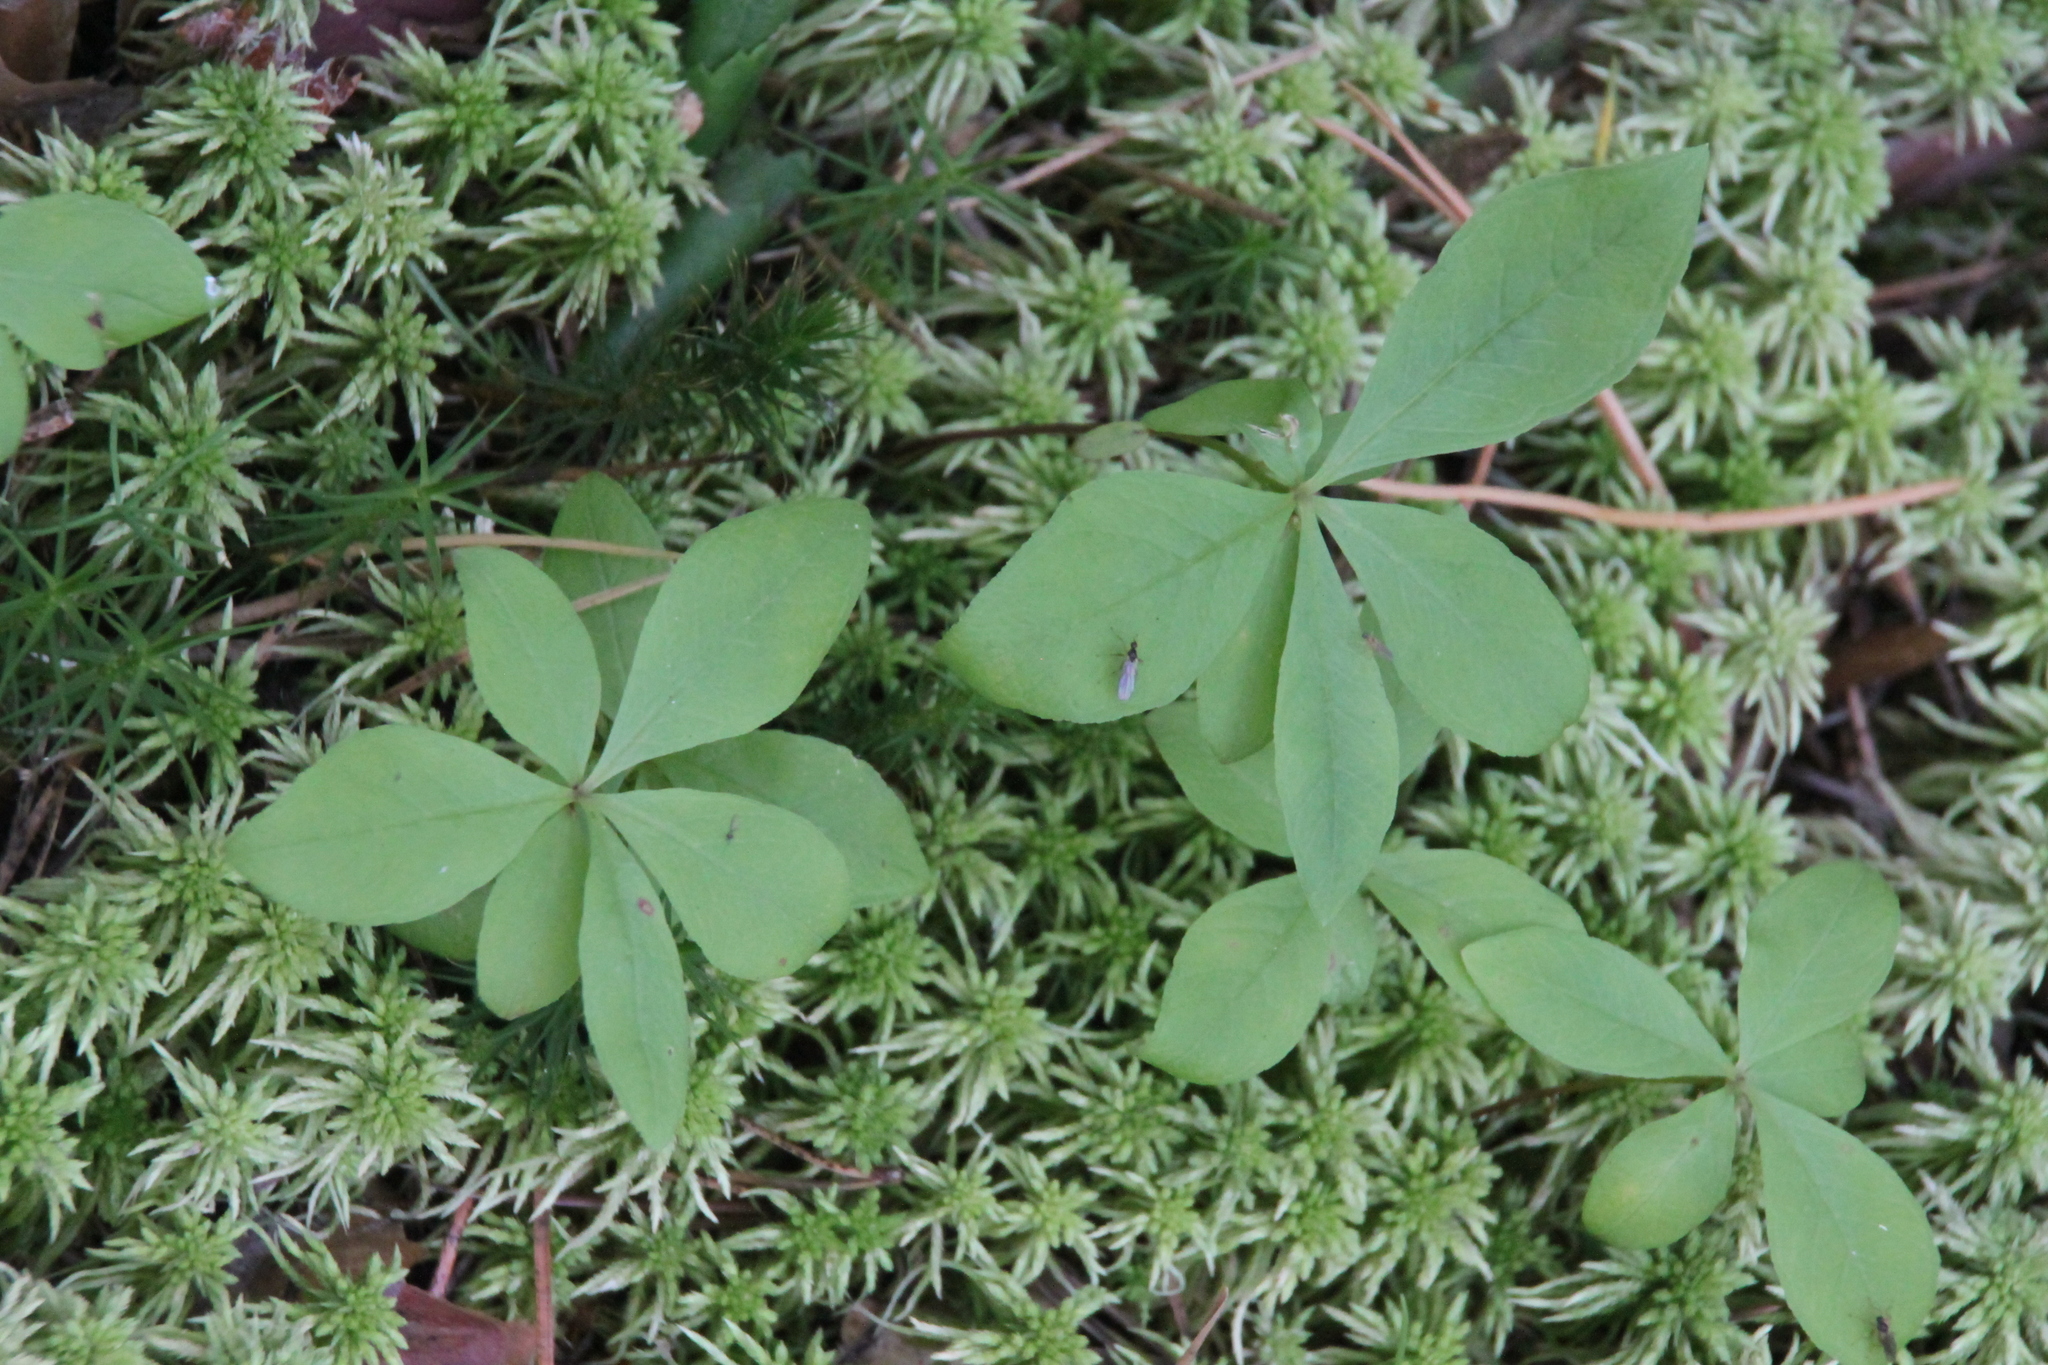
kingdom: Plantae
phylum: Tracheophyta
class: Magnoliopsida
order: Ericales
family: Primulaceae
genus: Lysimachia
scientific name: Lysimachia europaea
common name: Arctic starflower
